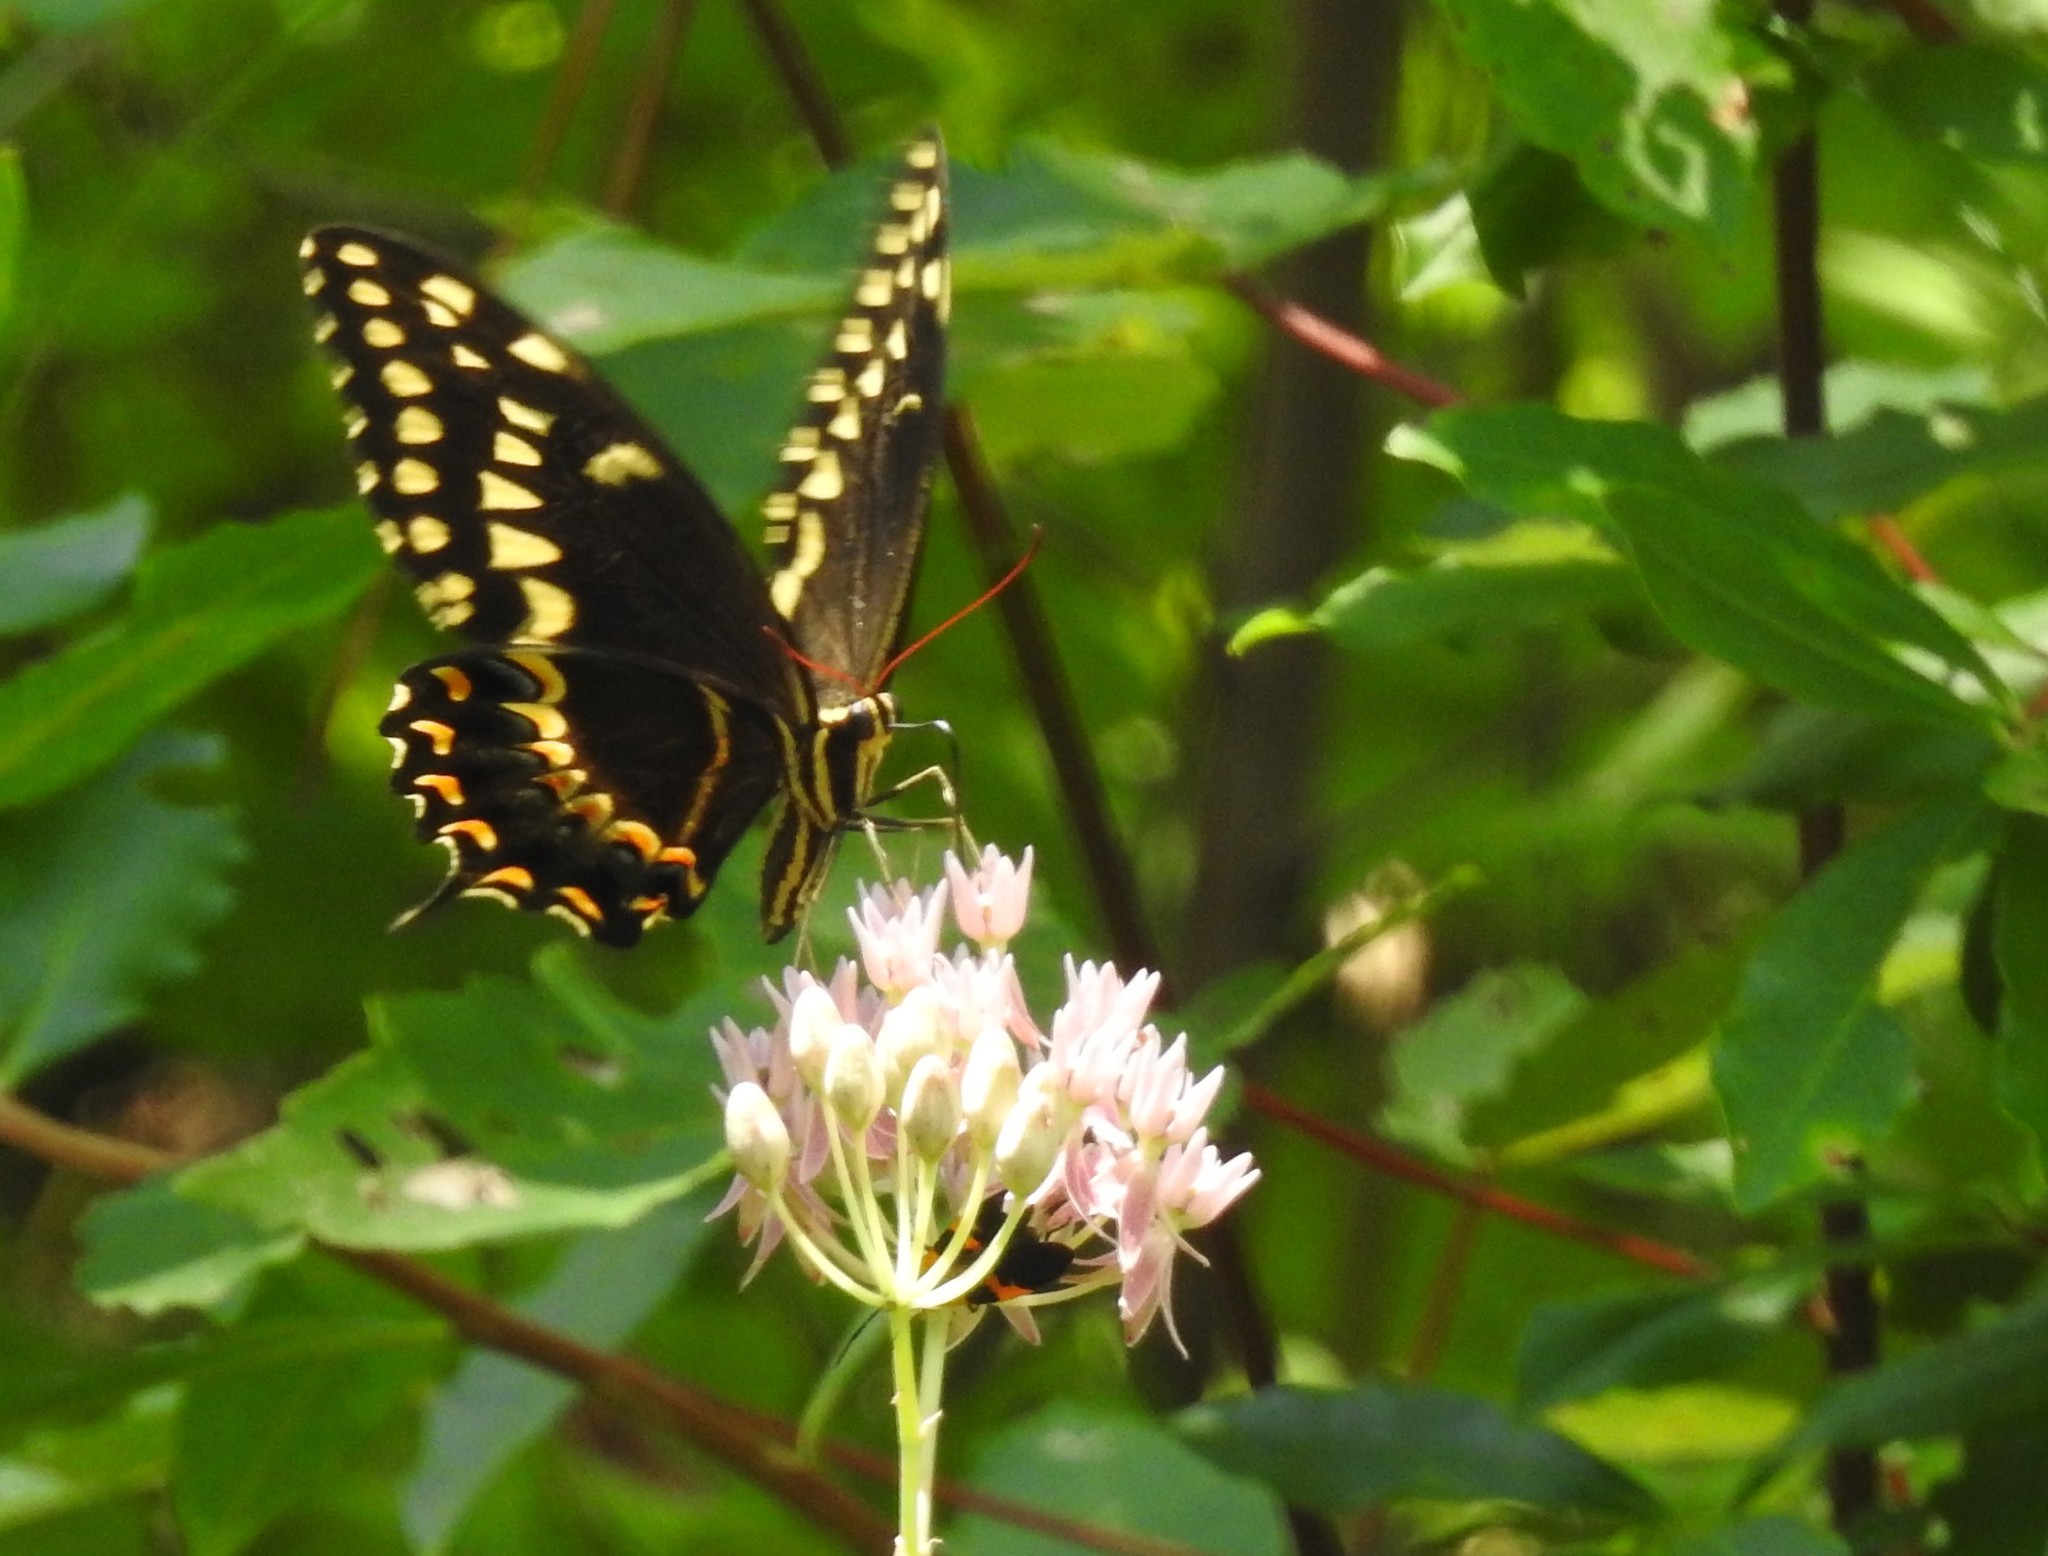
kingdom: Animalia
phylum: Arthropoda
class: Insecta
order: Lepidoptera
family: Papilionidae
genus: Papilio
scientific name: Papilio palamedes
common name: Palamedes swallowtail
